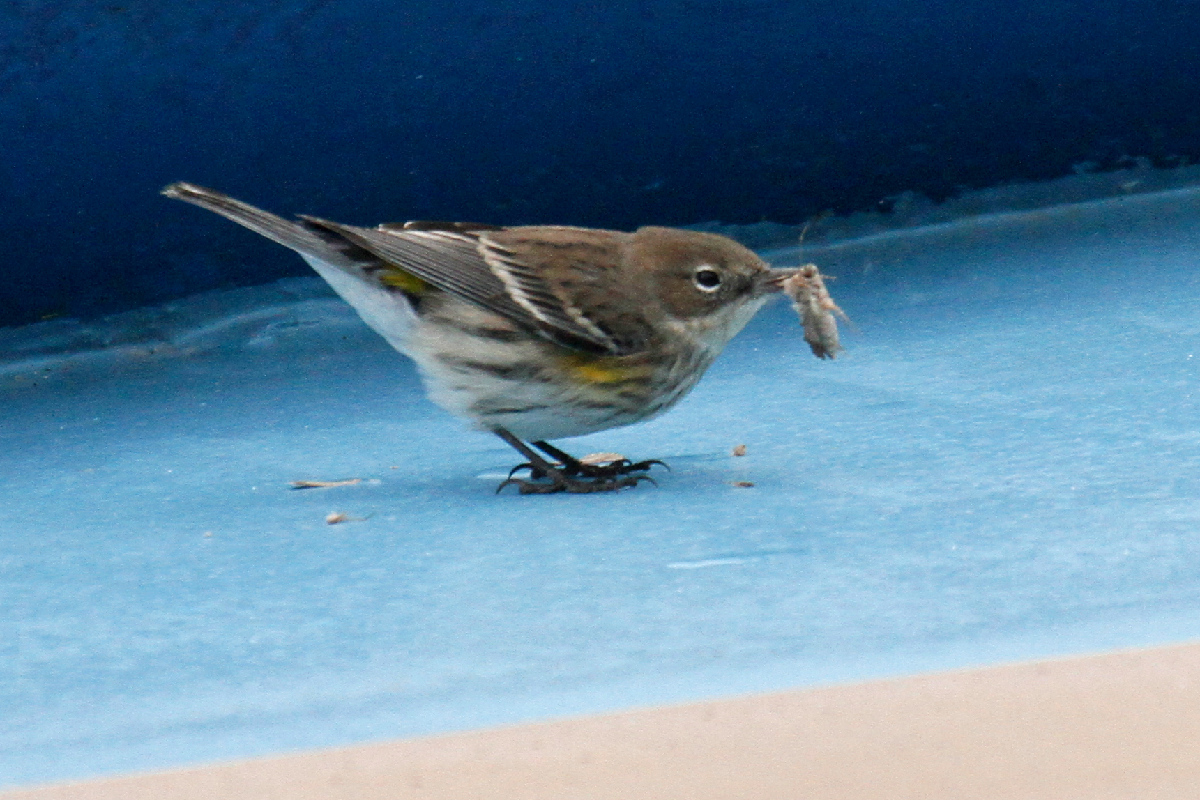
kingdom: Animalia
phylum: Chordata
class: Aves
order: Passeriformes
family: Parulidae
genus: Setophaga
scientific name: Setophaga coronata
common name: Myrtle warbler
